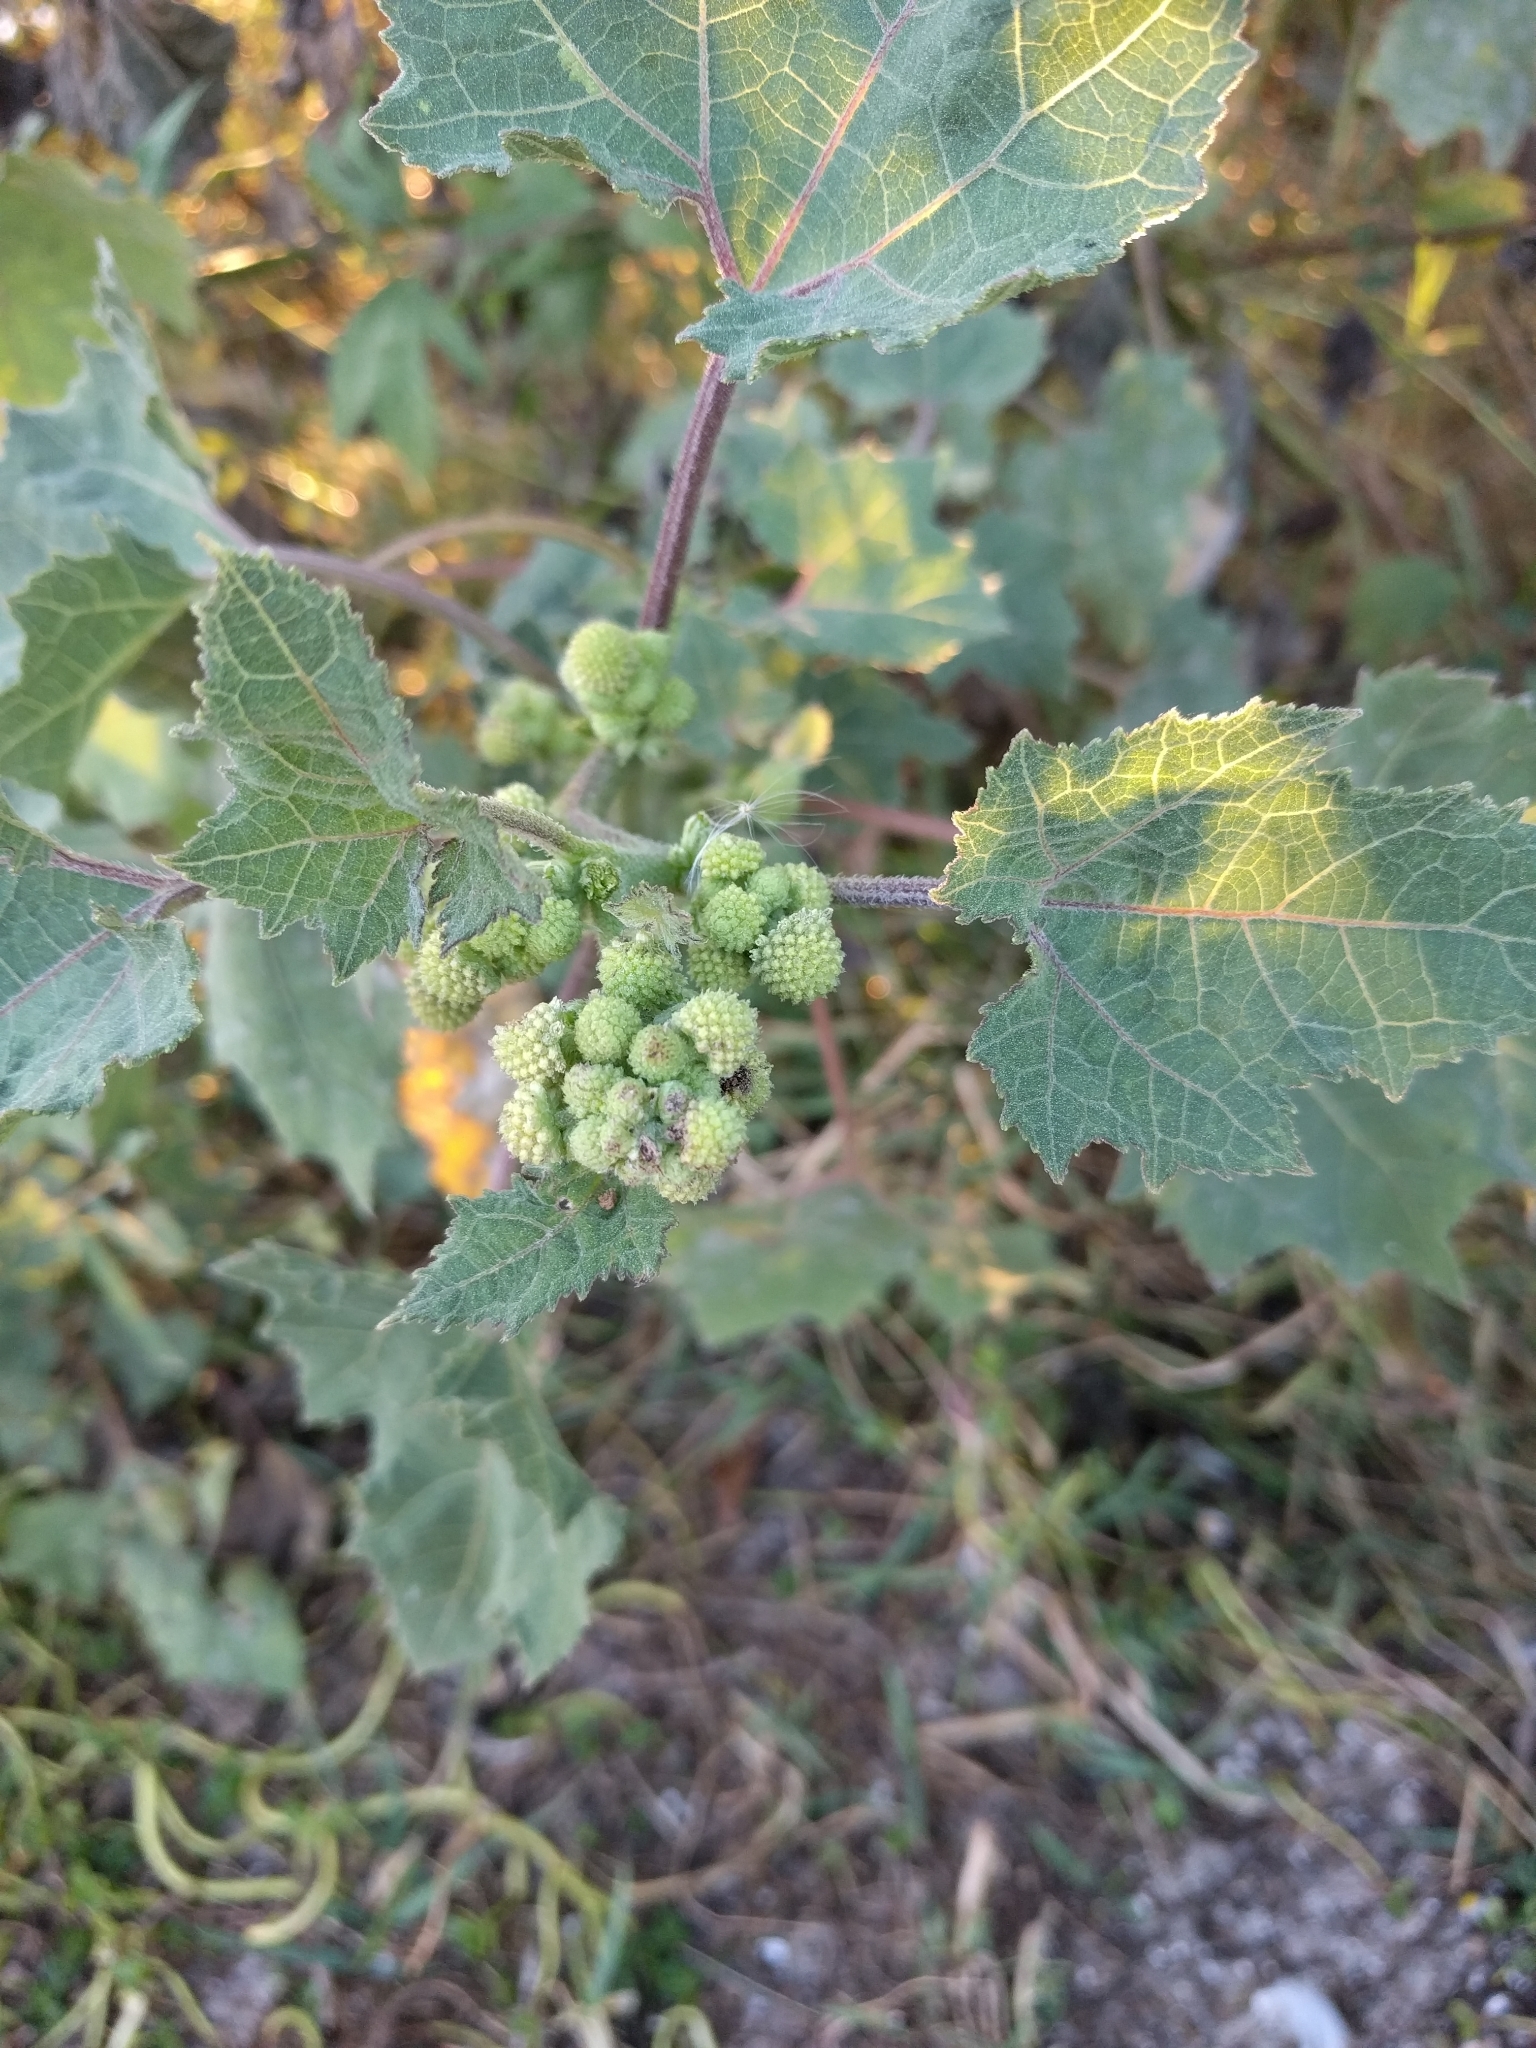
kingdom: Plantae
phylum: Tracheophyta
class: Magnoliopsida
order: Asterales
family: Asteraceae
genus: Xanthium
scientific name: Xanthium strumarium
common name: Rough cocklebur
